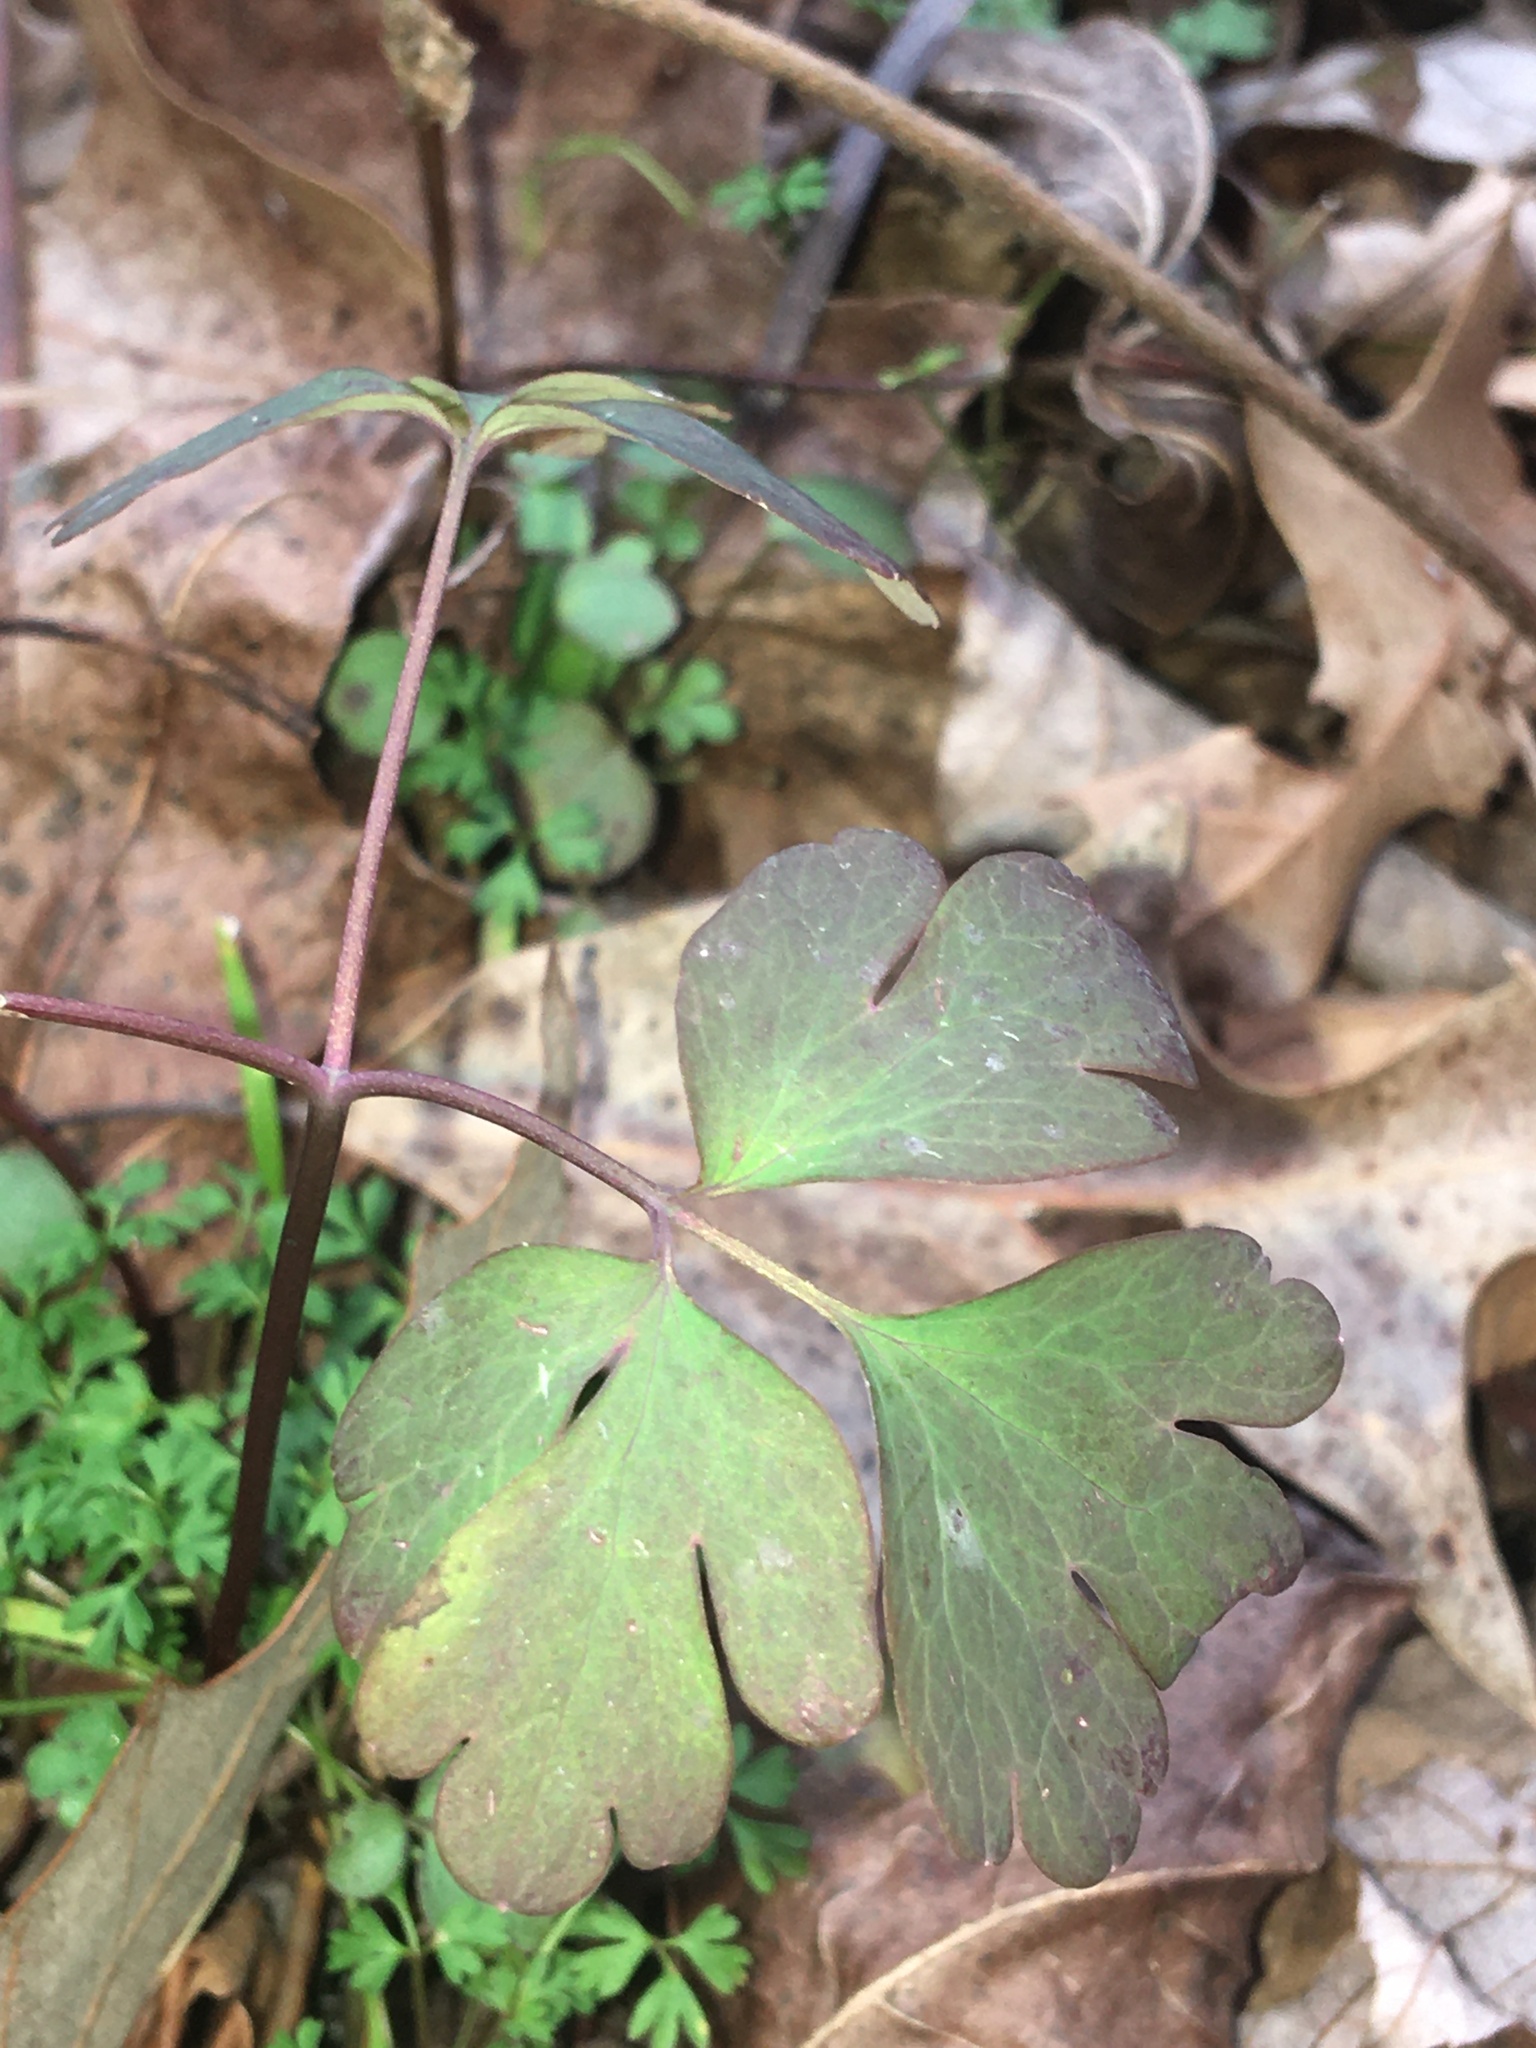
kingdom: Plantae
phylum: Tracheophyta
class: Magnoliopsida
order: Ranunculales
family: Ranunculaceae
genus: Aquilegia
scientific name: Aquilegia canadensis
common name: American columbine
